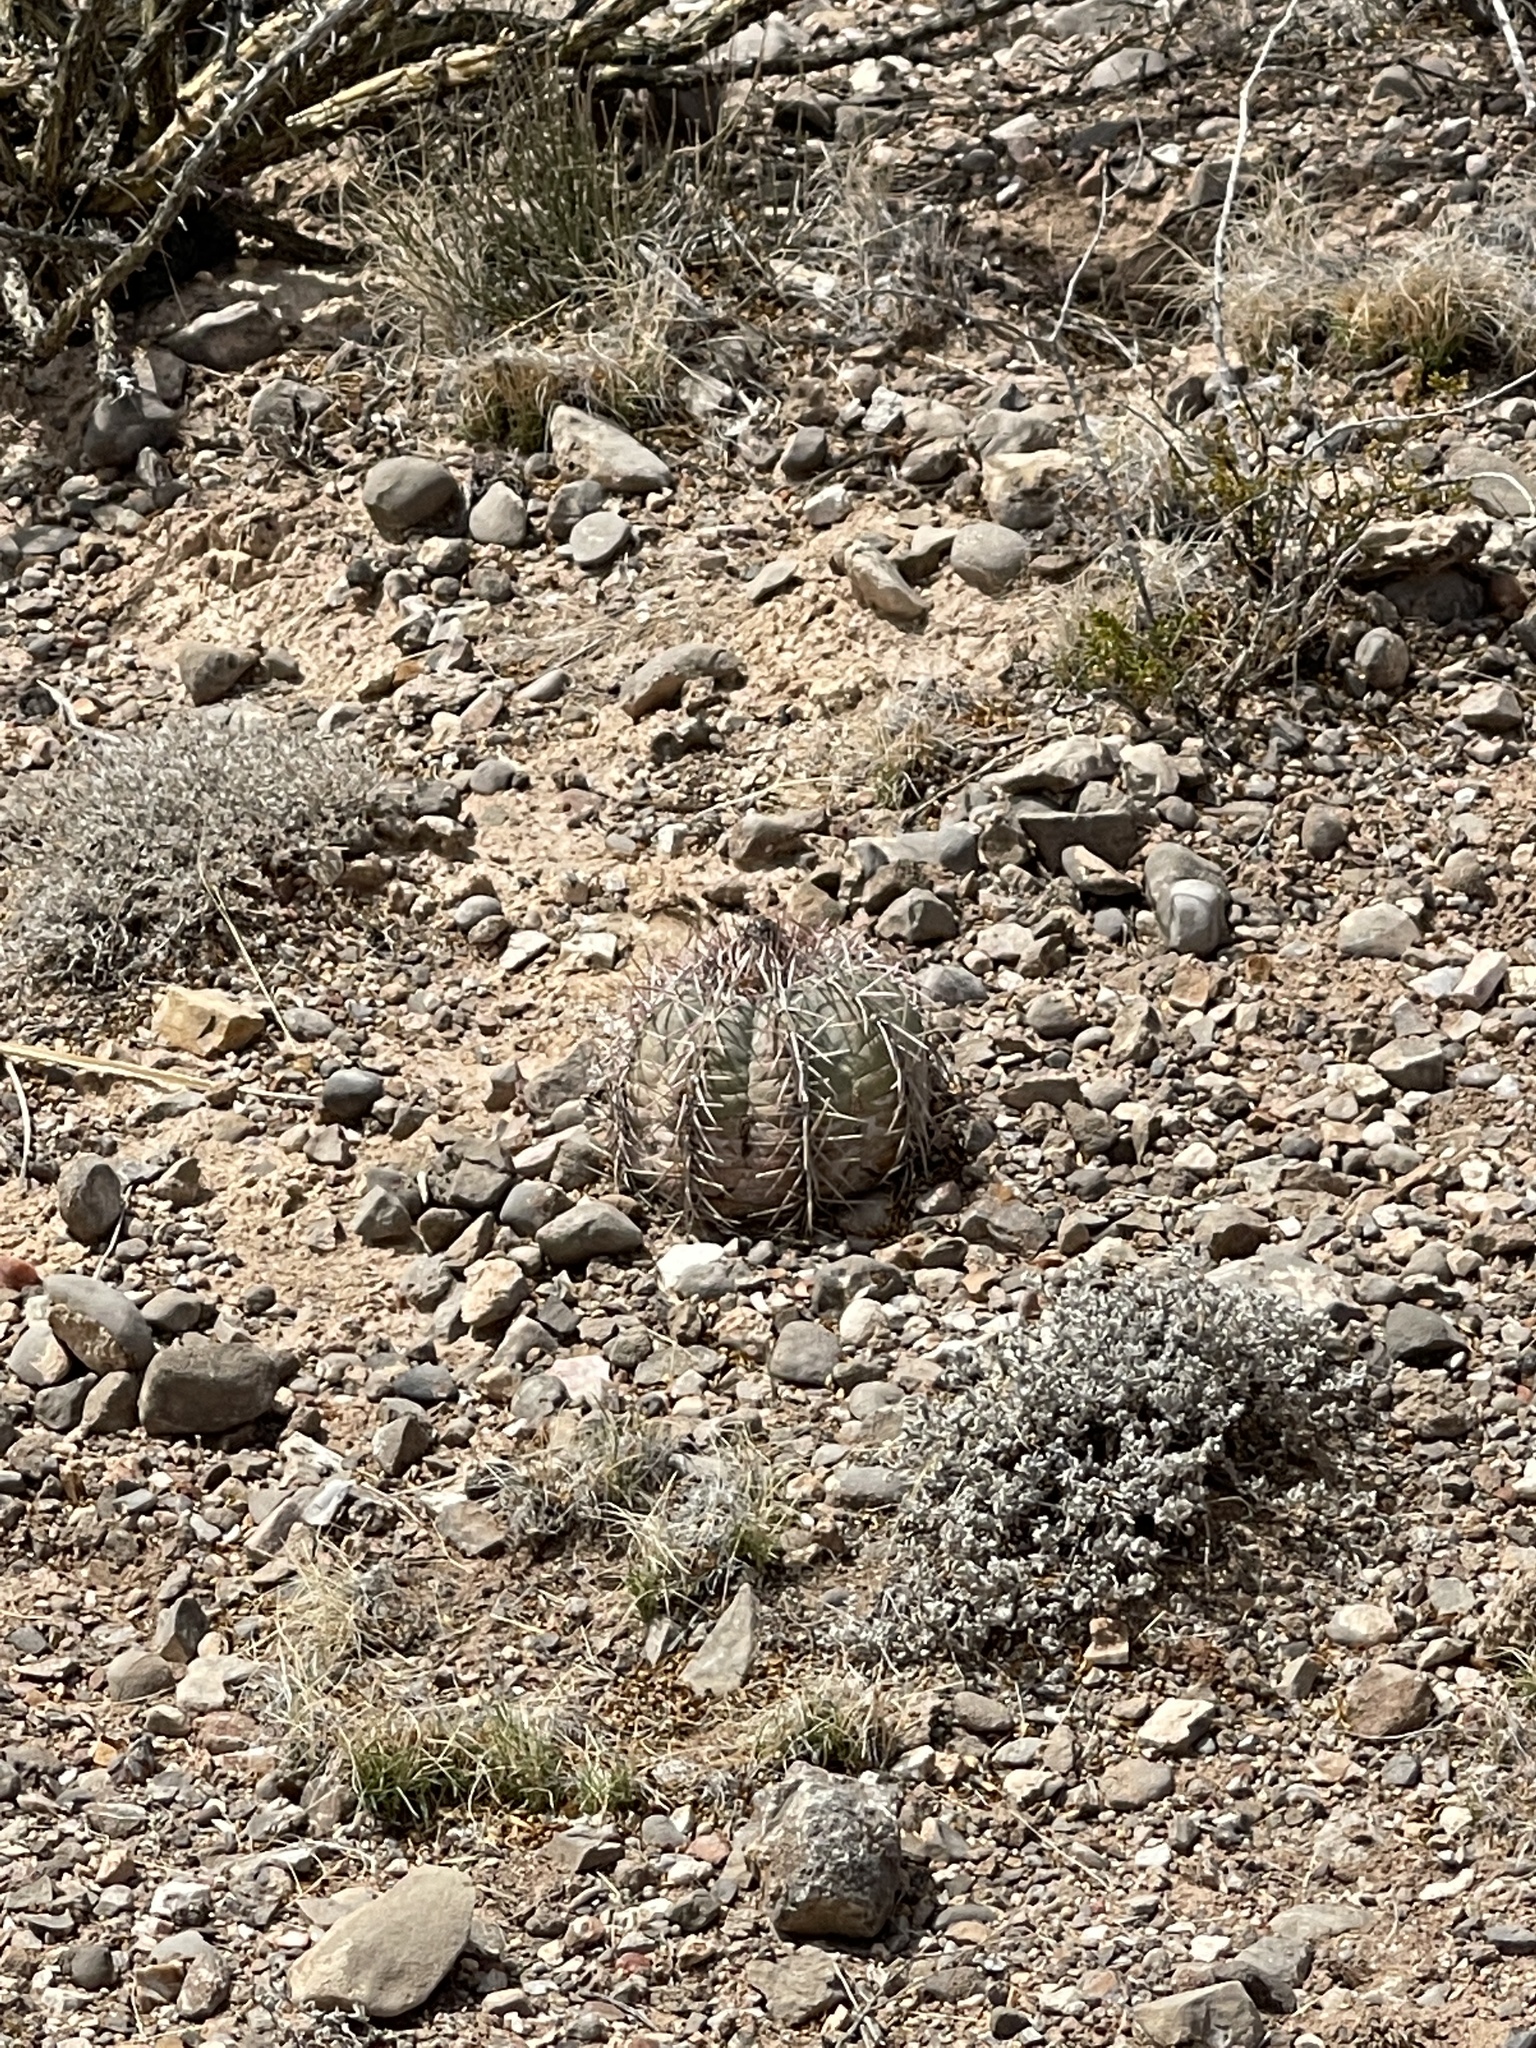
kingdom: Plantae
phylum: Tracheophyta
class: Magnoliopsida
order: Caryophyllales
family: Cactaceae
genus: Echinocactus
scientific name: Echinocactus horizonthalonius
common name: Devilshead
